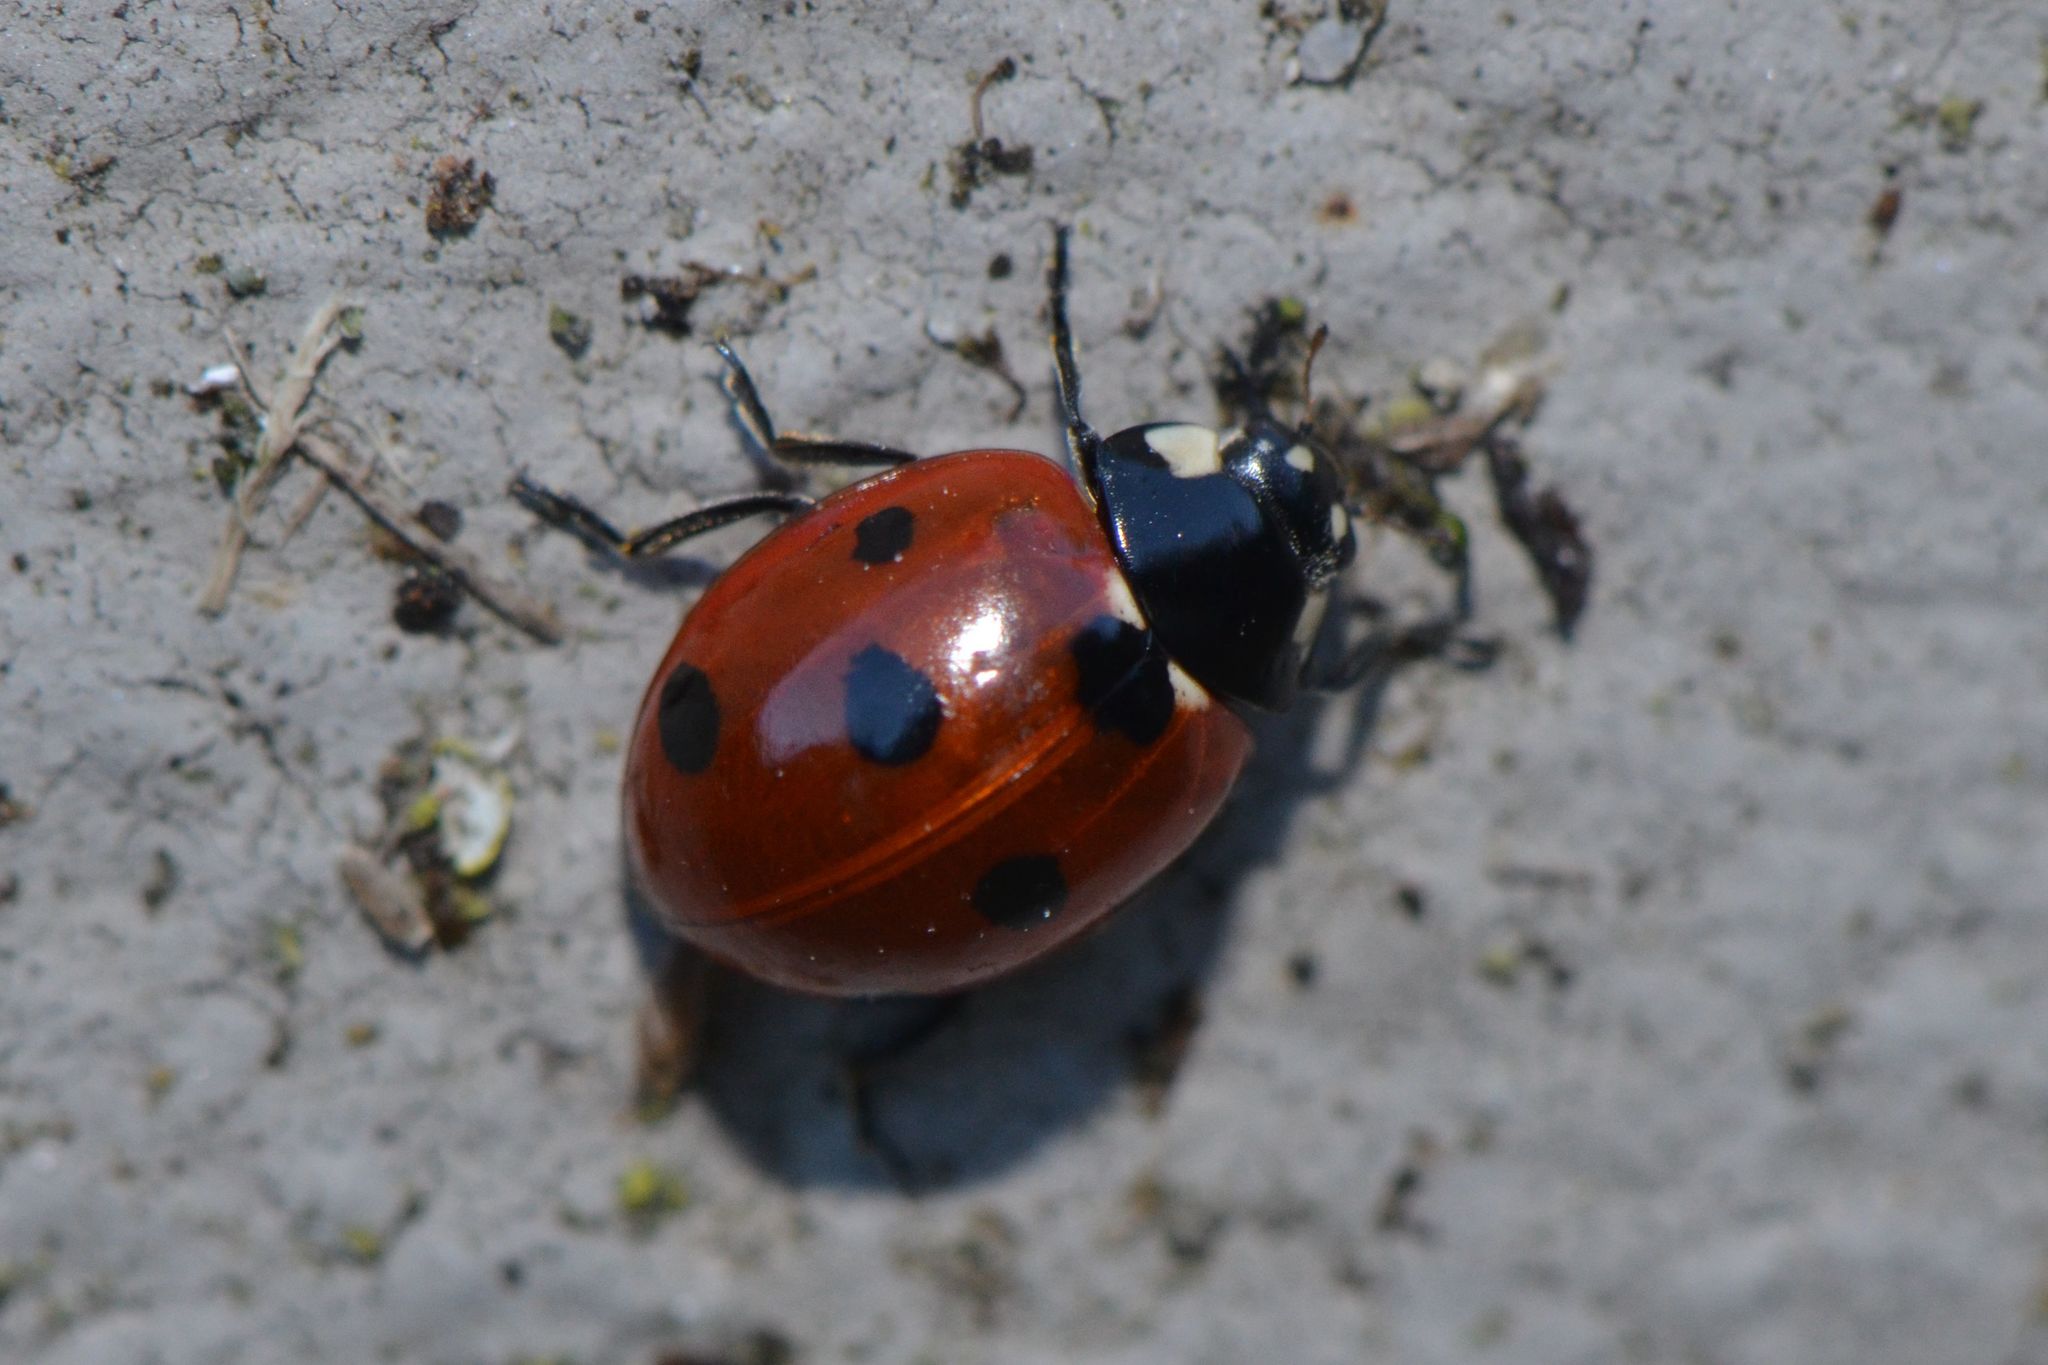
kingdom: Animalia
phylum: Arthropoda
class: Insecta
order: Coleoptera
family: Coccinellidae
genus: Coccinella
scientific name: Coccinella septempunctata
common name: Sevenspotted lady beetle
